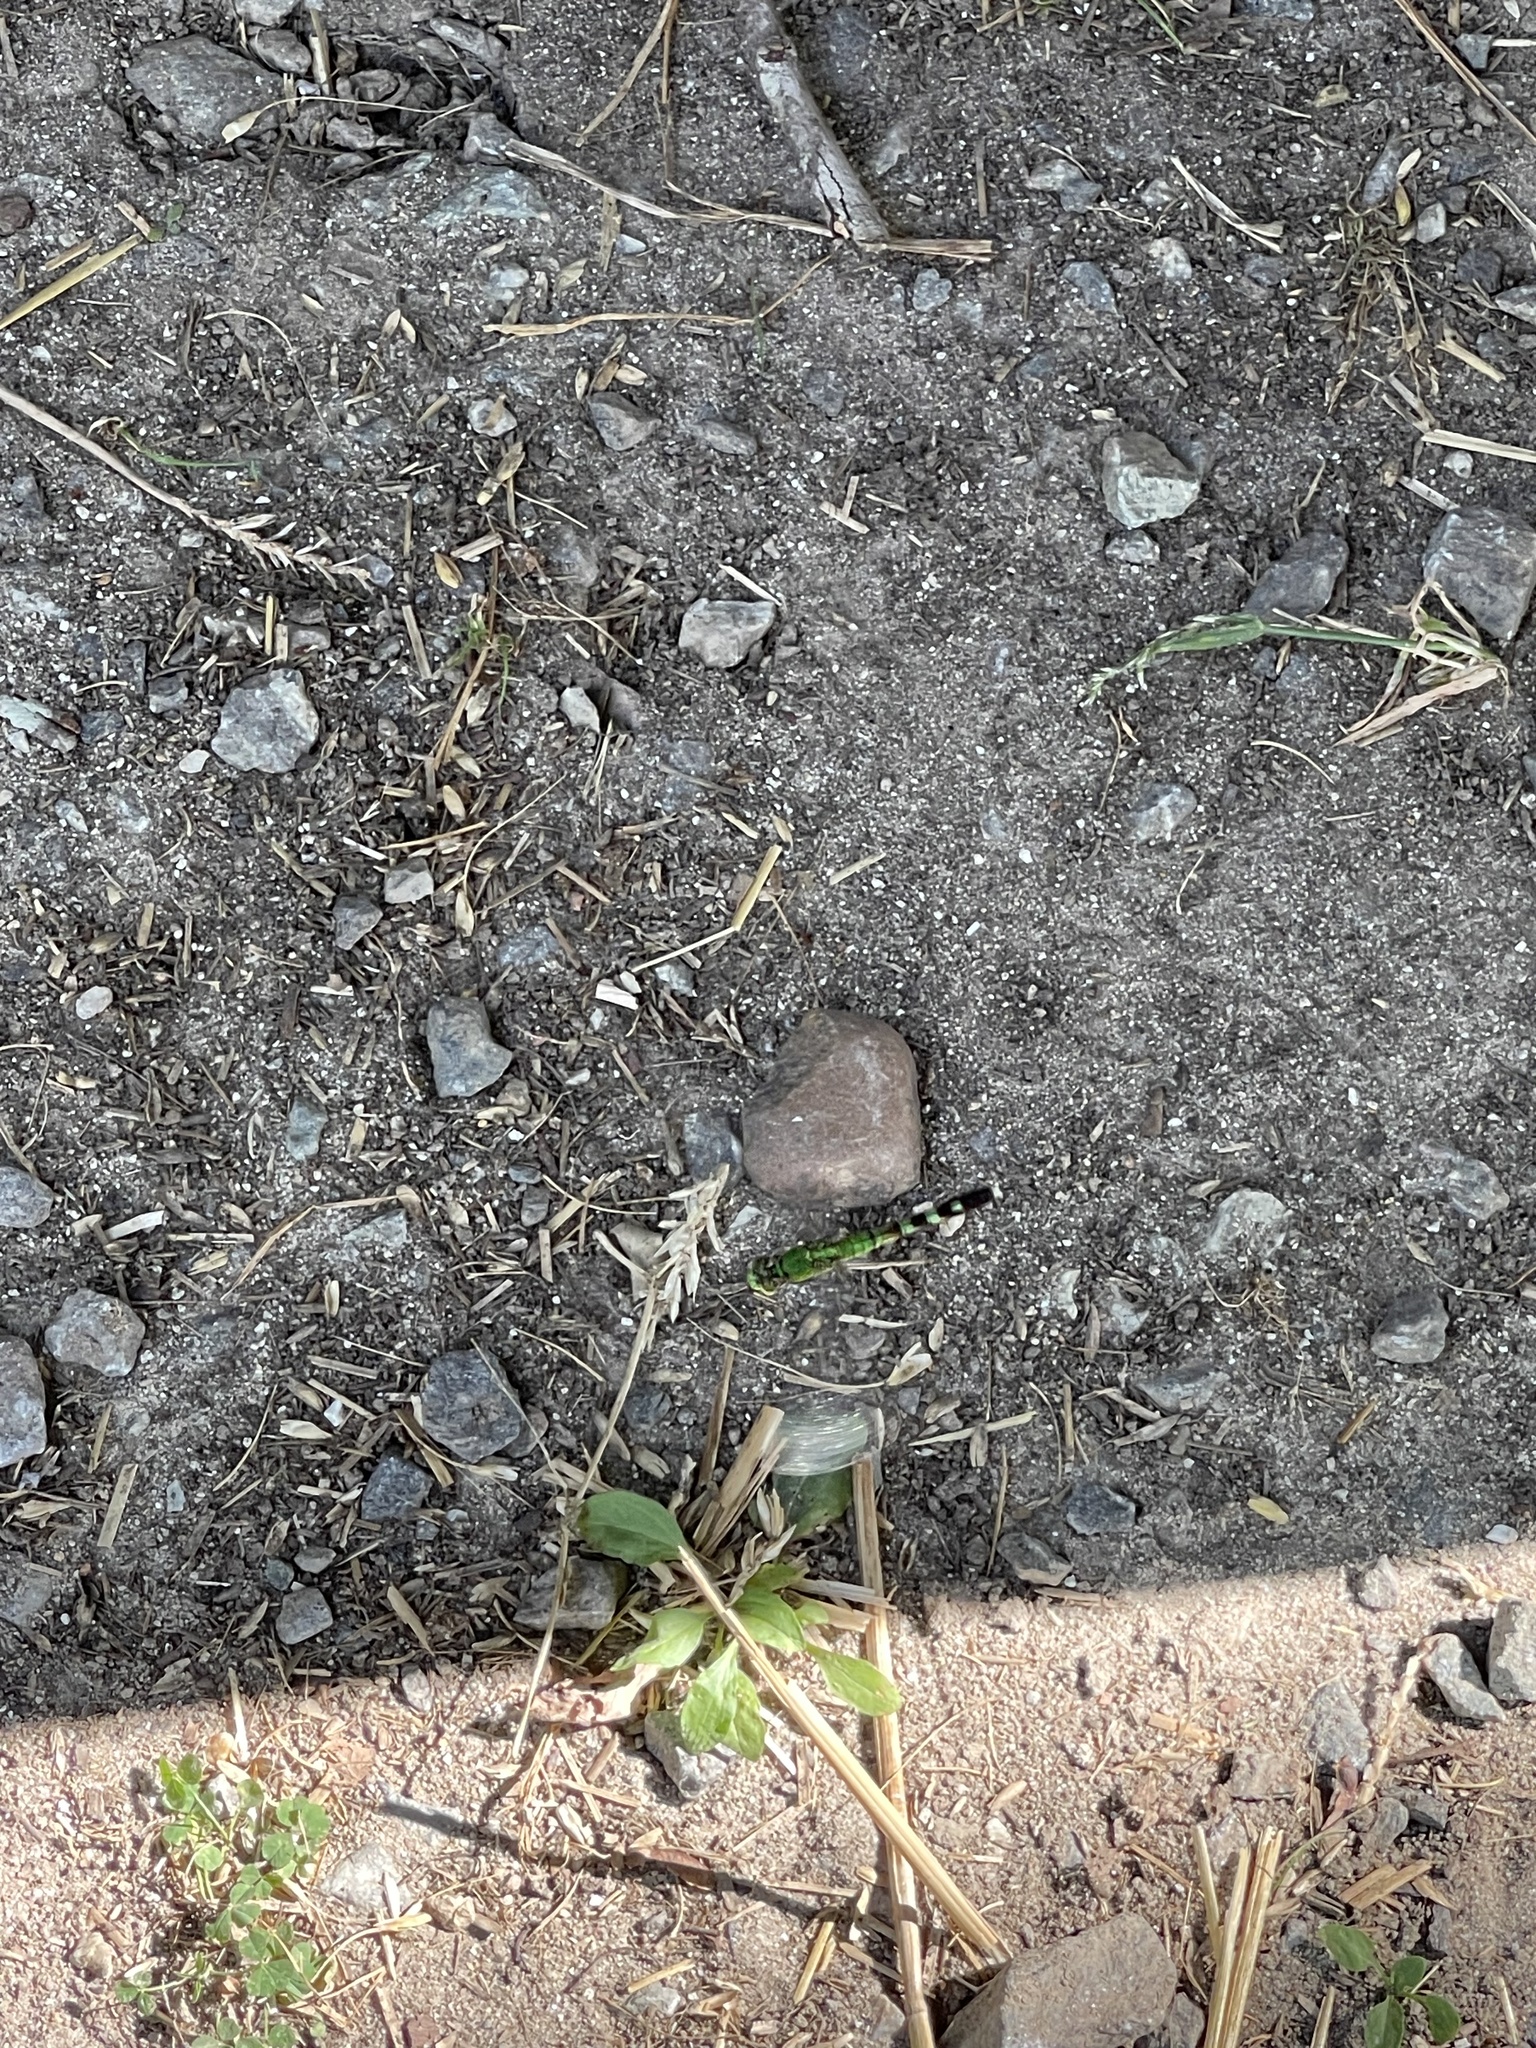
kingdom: Animalia
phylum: Arthropoda
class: Insecta
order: Odonata
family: Libellulidae
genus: Erythemis
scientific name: Erythemis simplicicollis
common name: Eastern pondhawk
